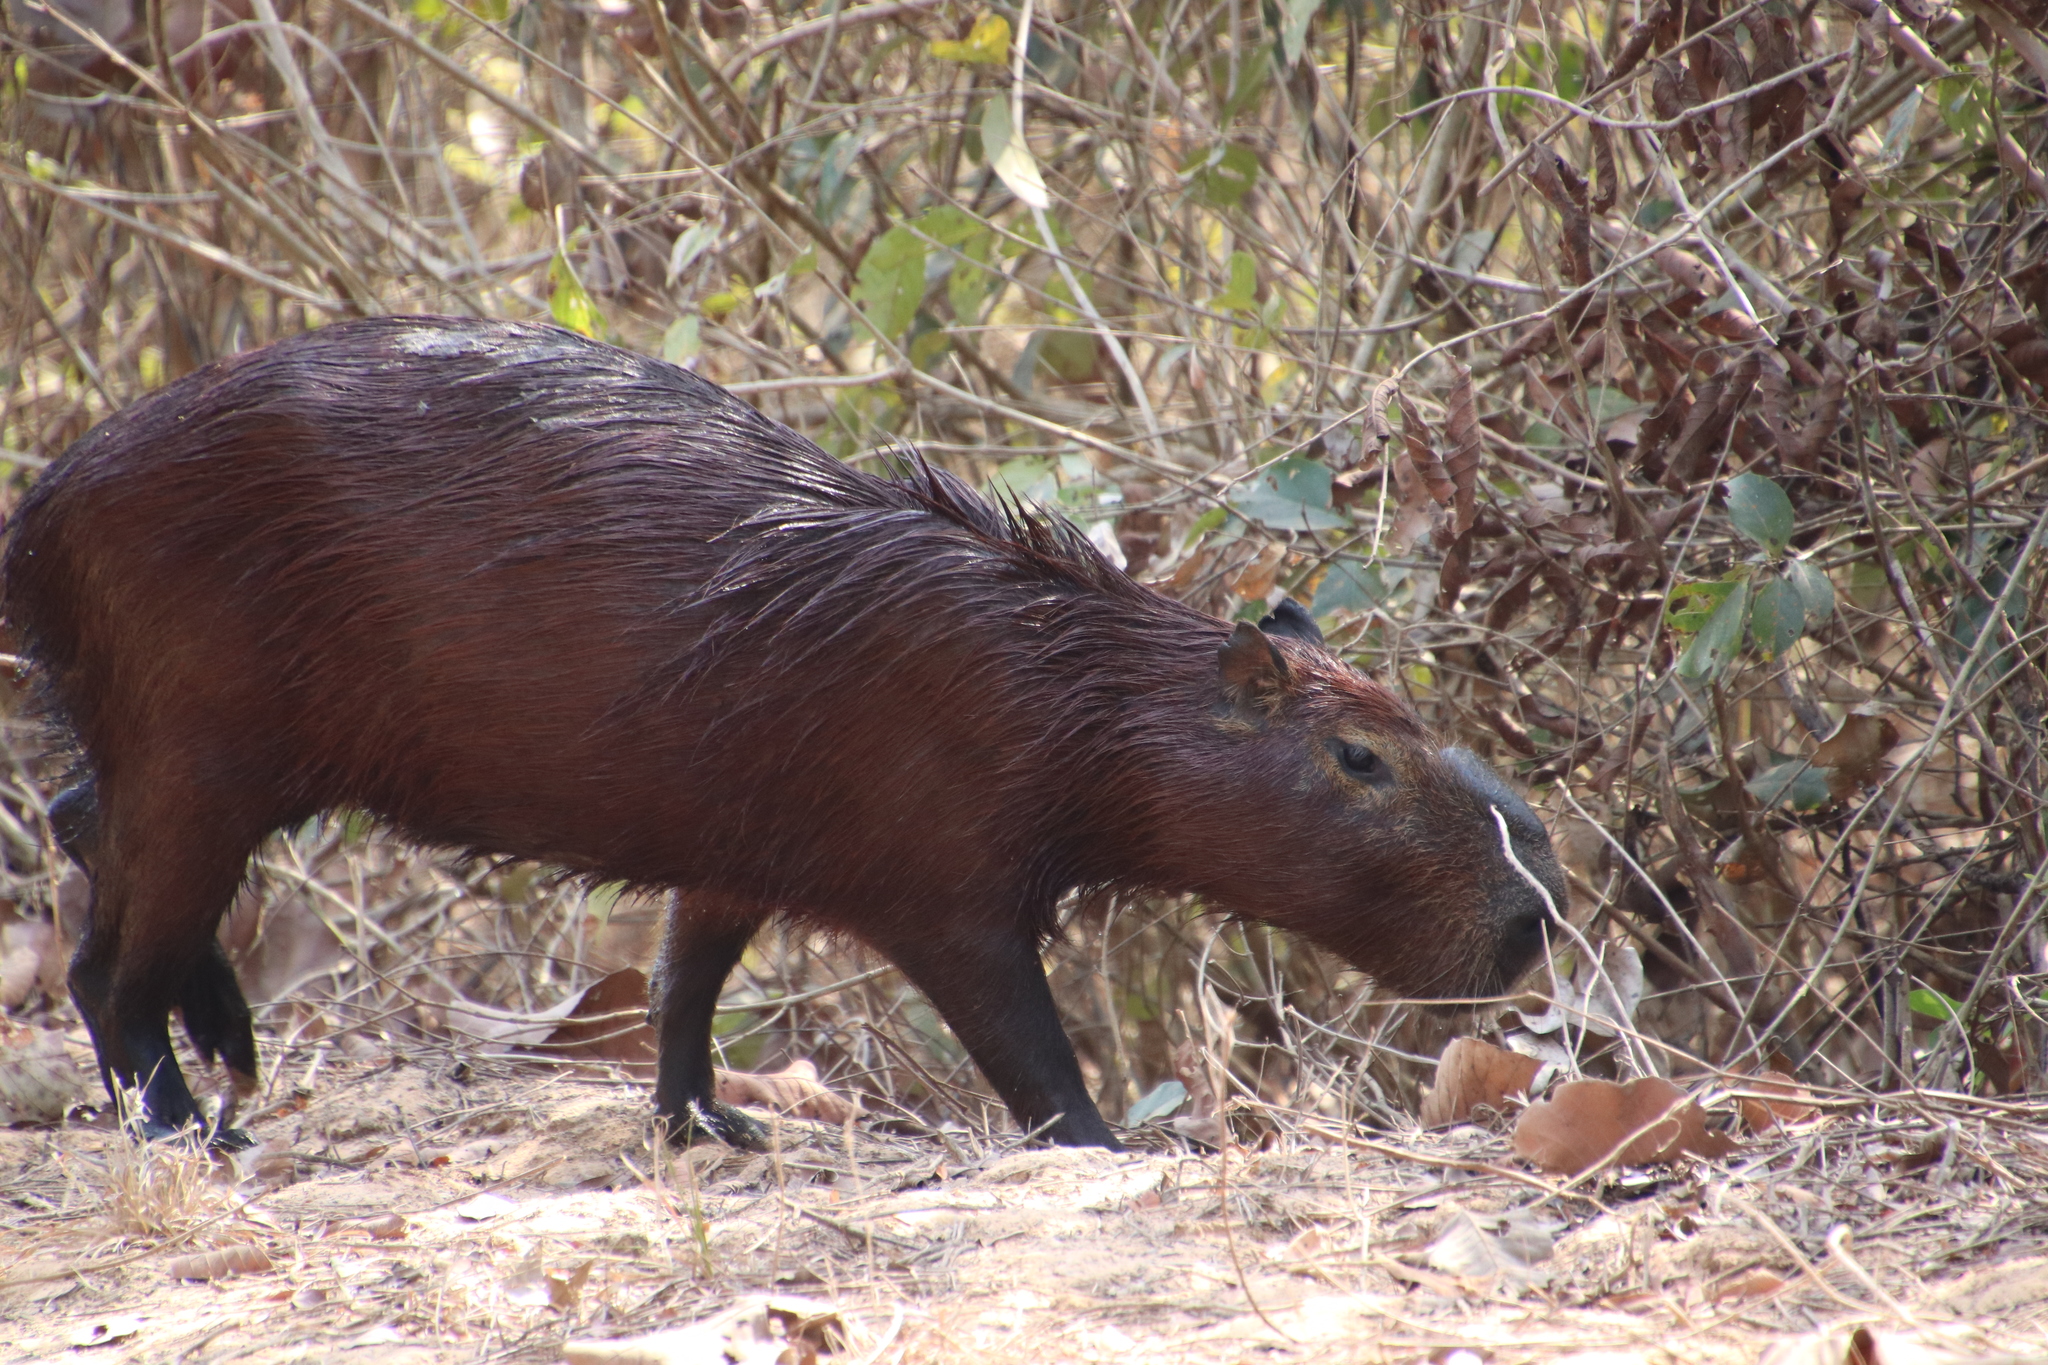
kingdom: Animalia
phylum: Chordata
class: Mammalia
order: Rodentia
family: Caviidae
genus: Hydrochoerus
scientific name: Hydrochoerus hydrochaeris
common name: Capybara
